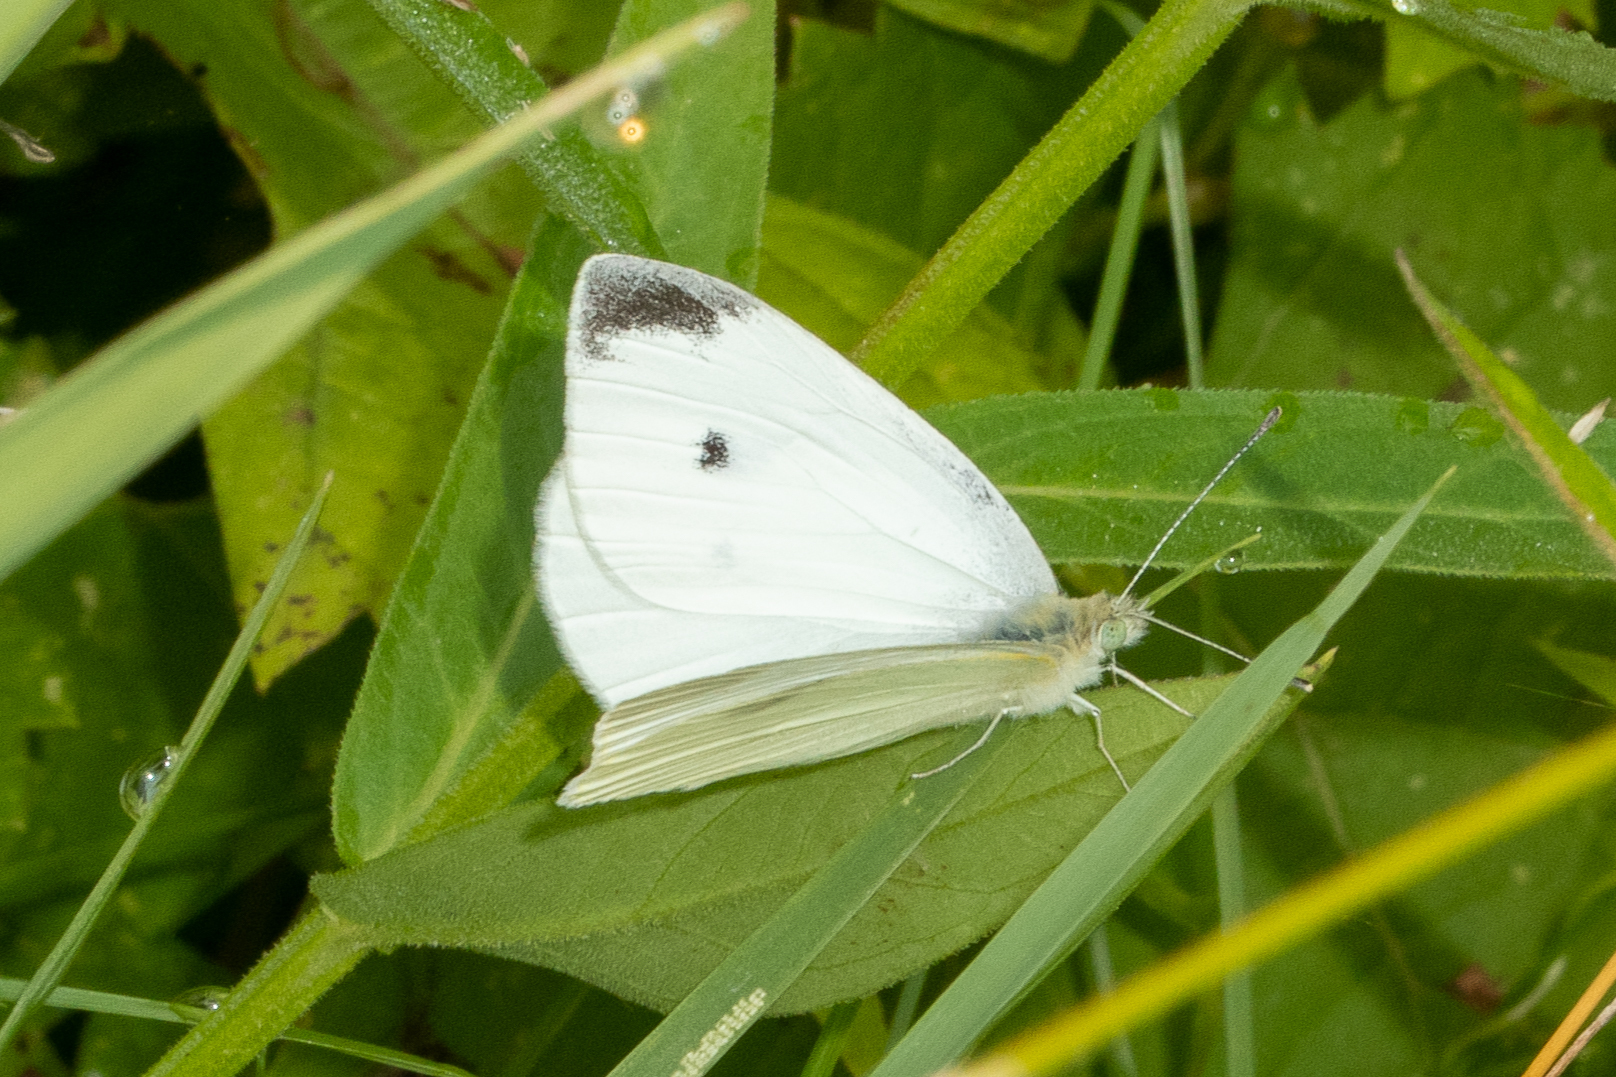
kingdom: Animalia
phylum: Arthropoda
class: Insecta
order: Lepidoptera
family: Pieridae
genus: Pieris
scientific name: Pieris rapae
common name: Small white
